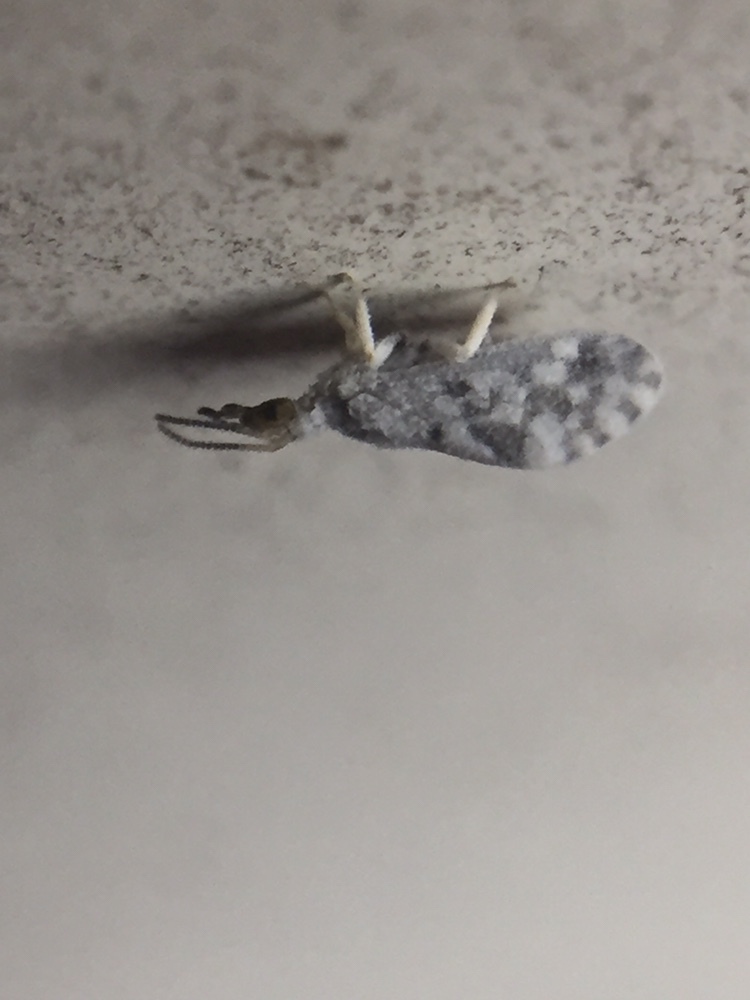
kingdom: Animalia
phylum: Arthropoda
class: Insecta
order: Neuroptera
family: Coniopterygidae
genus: Heteroconis
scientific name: Heteroconis ornata
